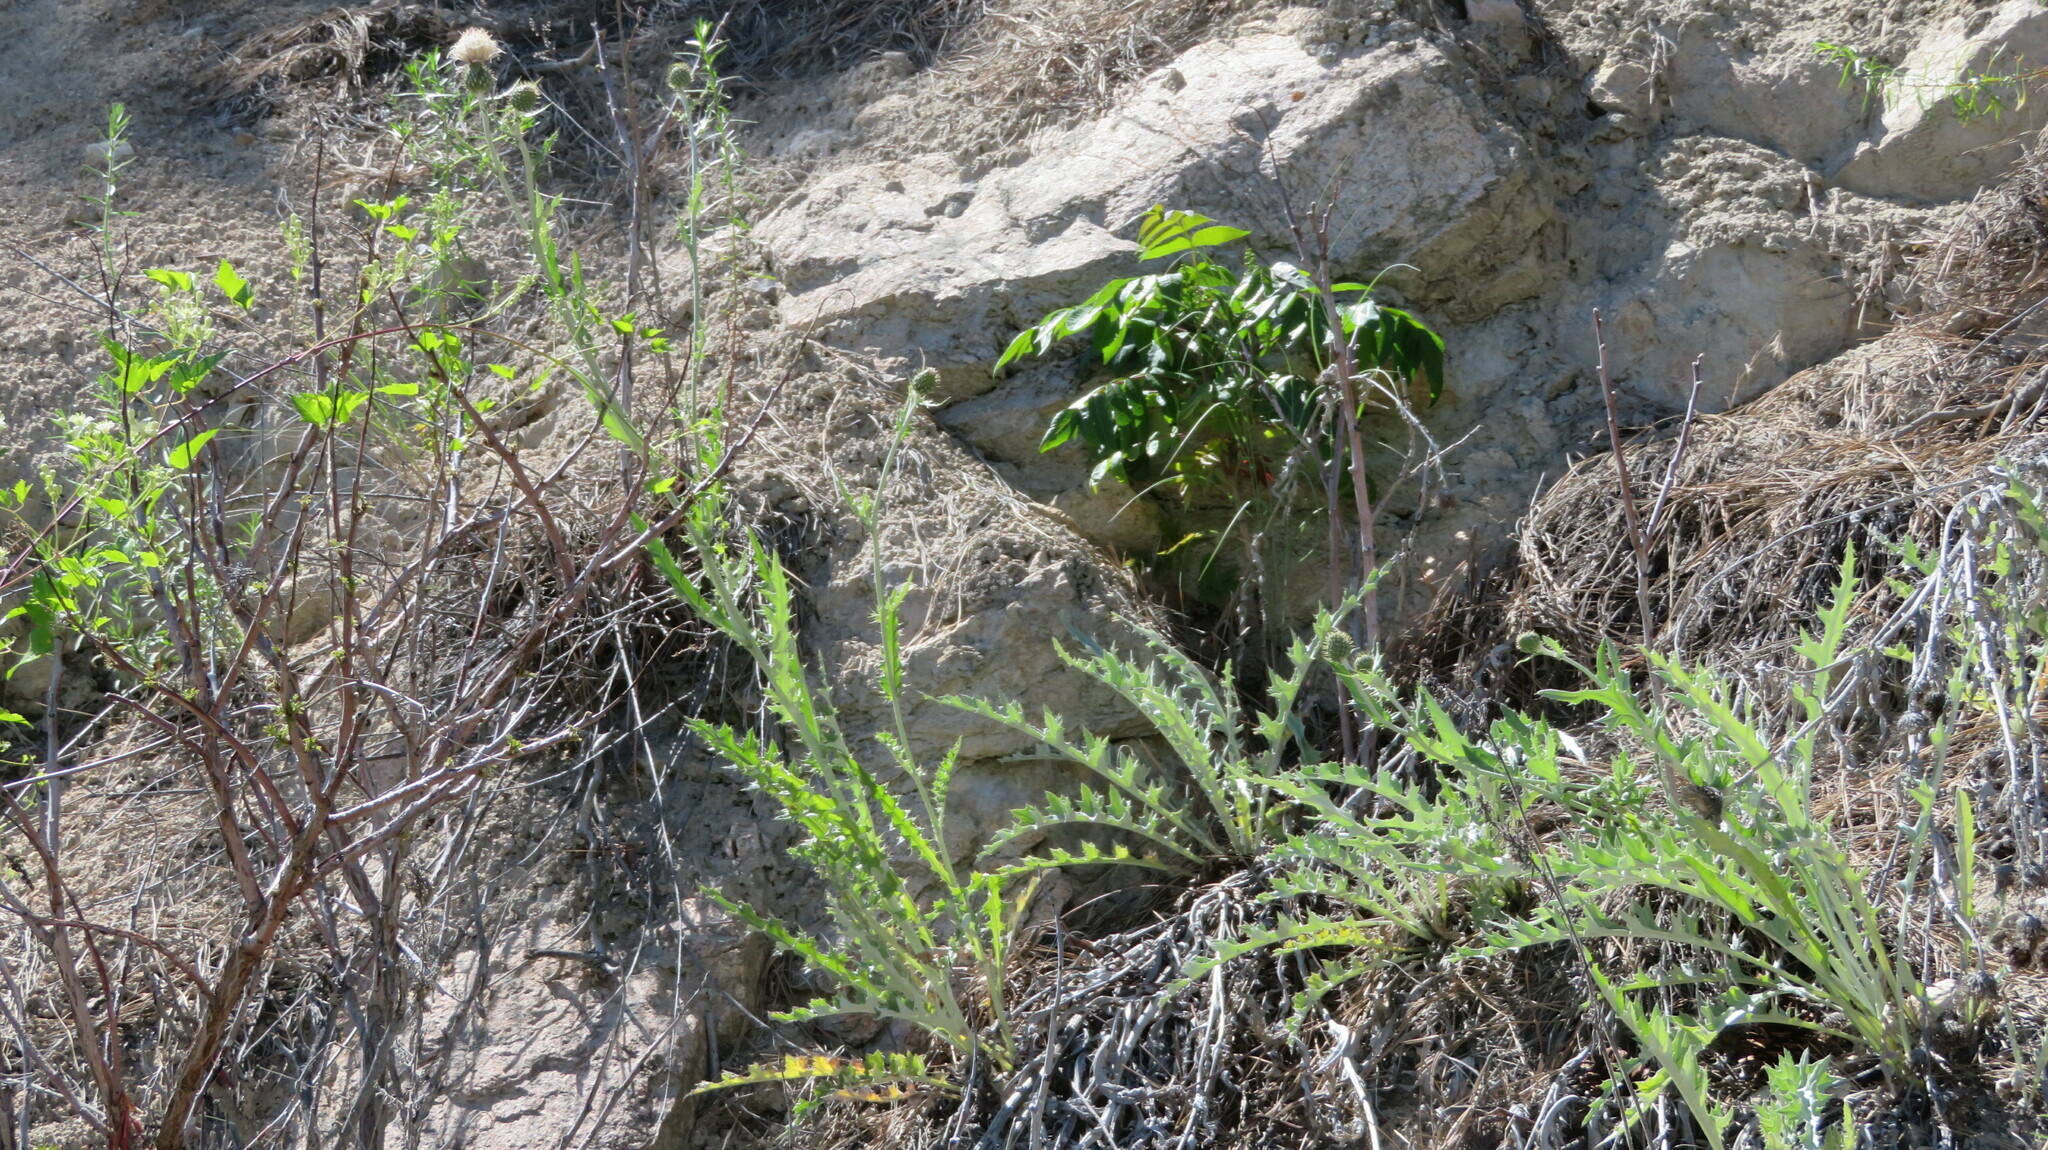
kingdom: Plantae
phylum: Tracheophyta
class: Magnoliopsida
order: Asterales
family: Asteraceae
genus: Cirsium
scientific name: Cirsium undulatum
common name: Pasture thistle
